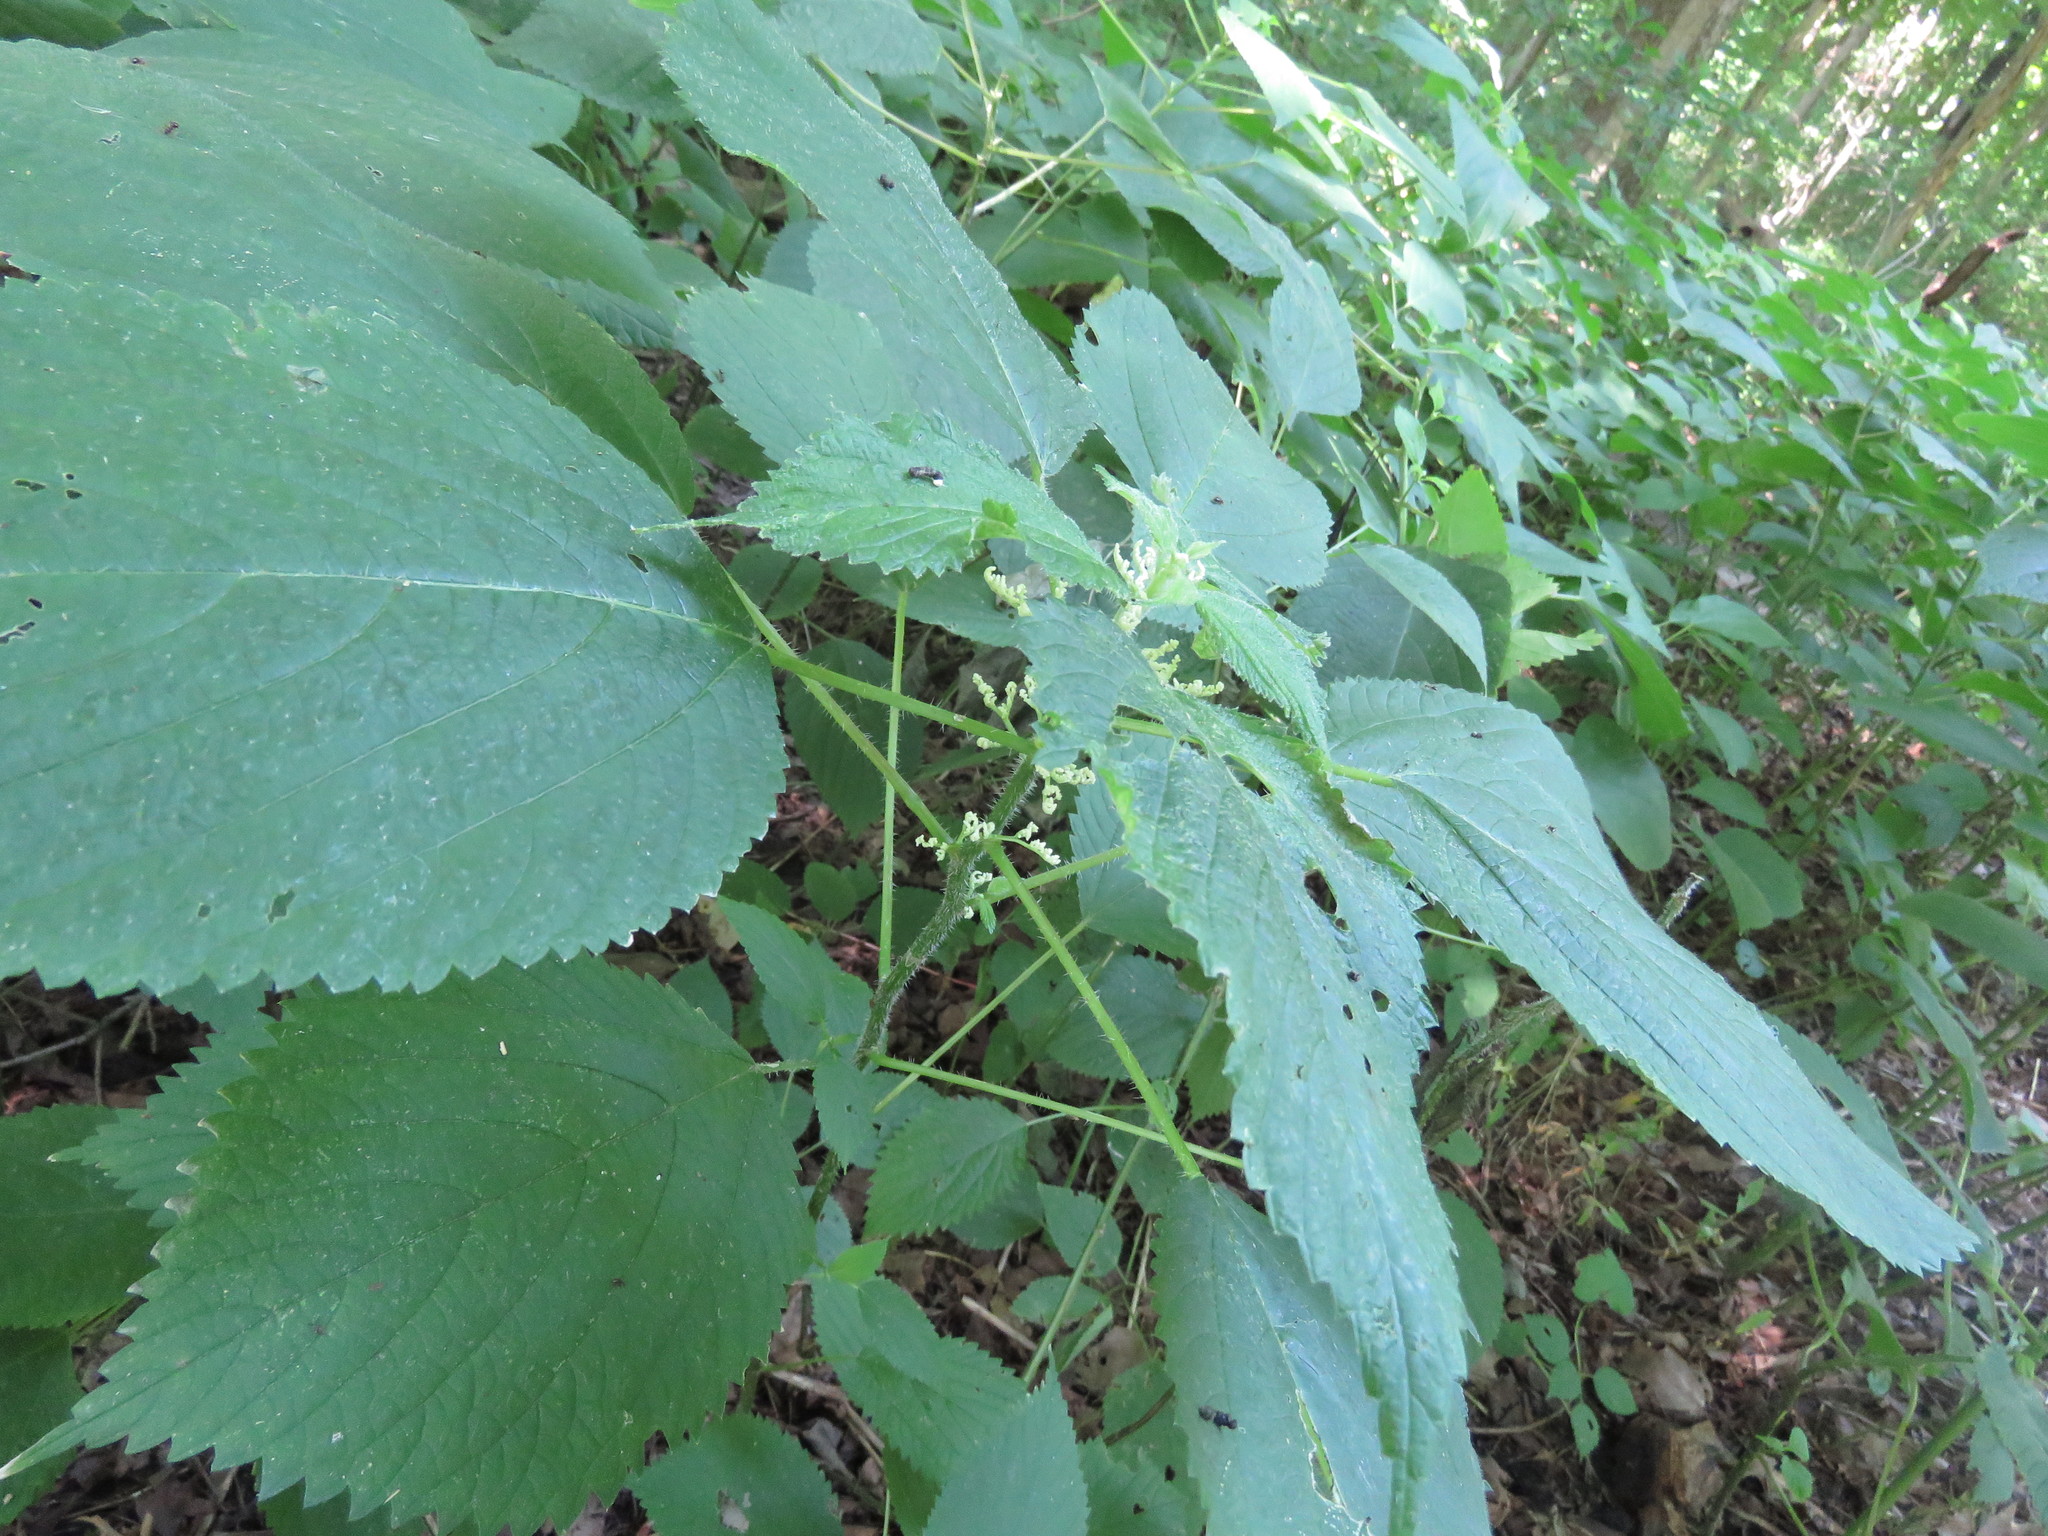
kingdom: Plantae
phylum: Tracheophyta
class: Magnoliopsida
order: Rosales
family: Urticaceae
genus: Laportea
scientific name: Laportea canadensis
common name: Canada nettle
